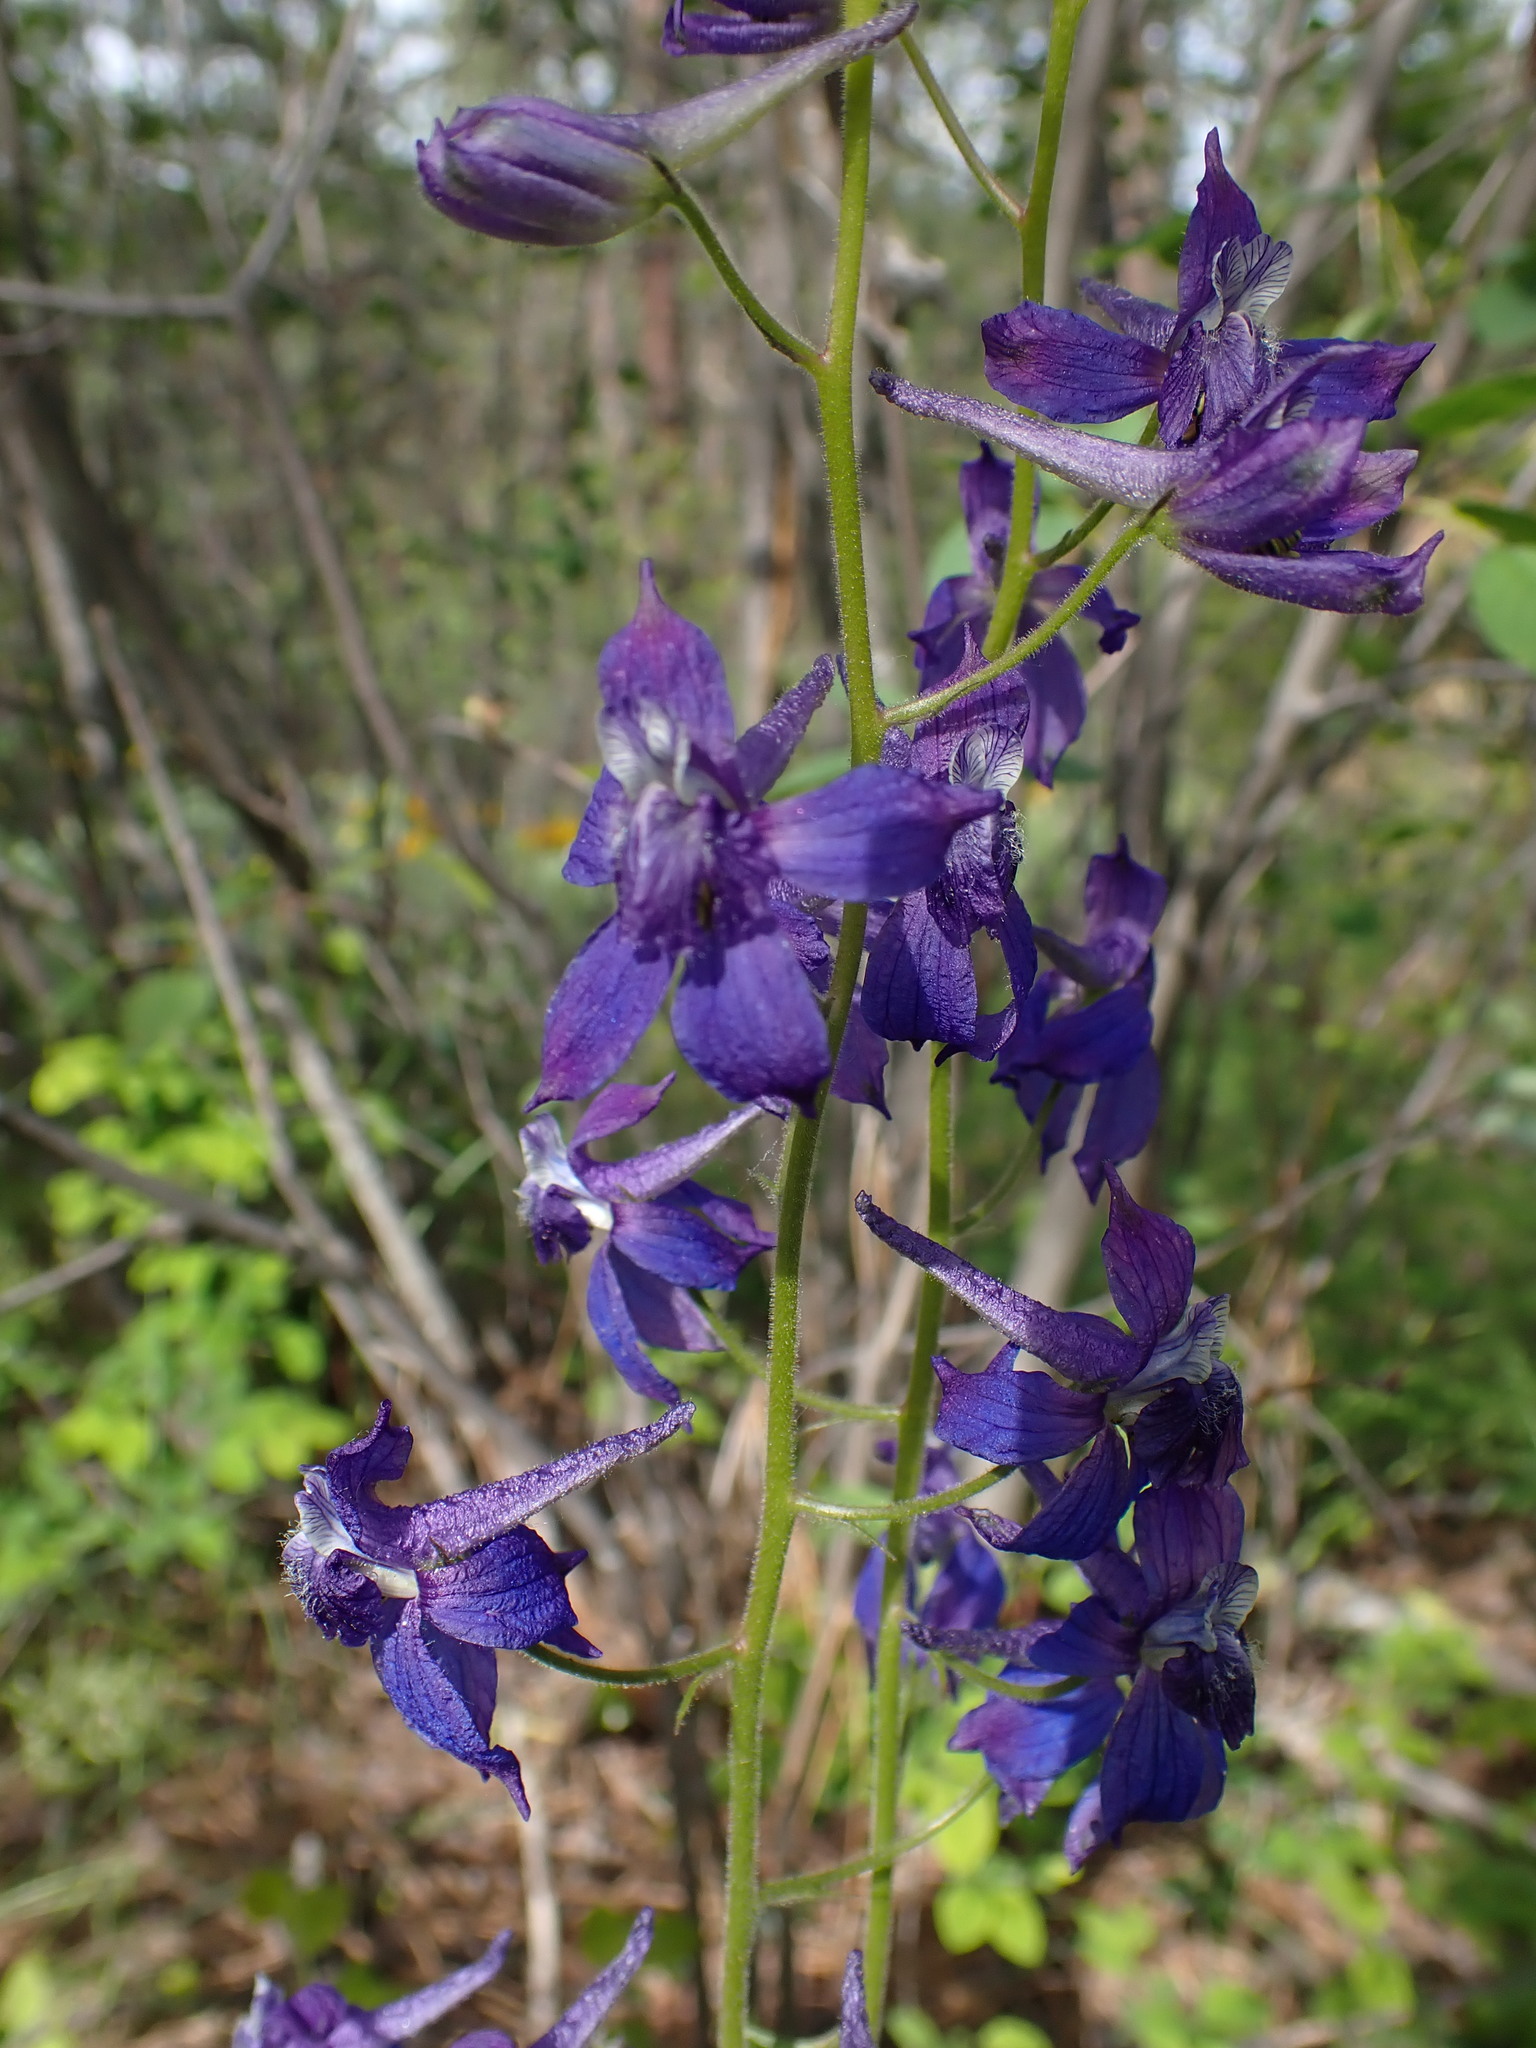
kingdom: Plantae
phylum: Tracheophyta
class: Magnoliopsida
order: Ranunculales
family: Ranunculaceae
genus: Delphinium
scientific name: Delphinium nuttallianum
